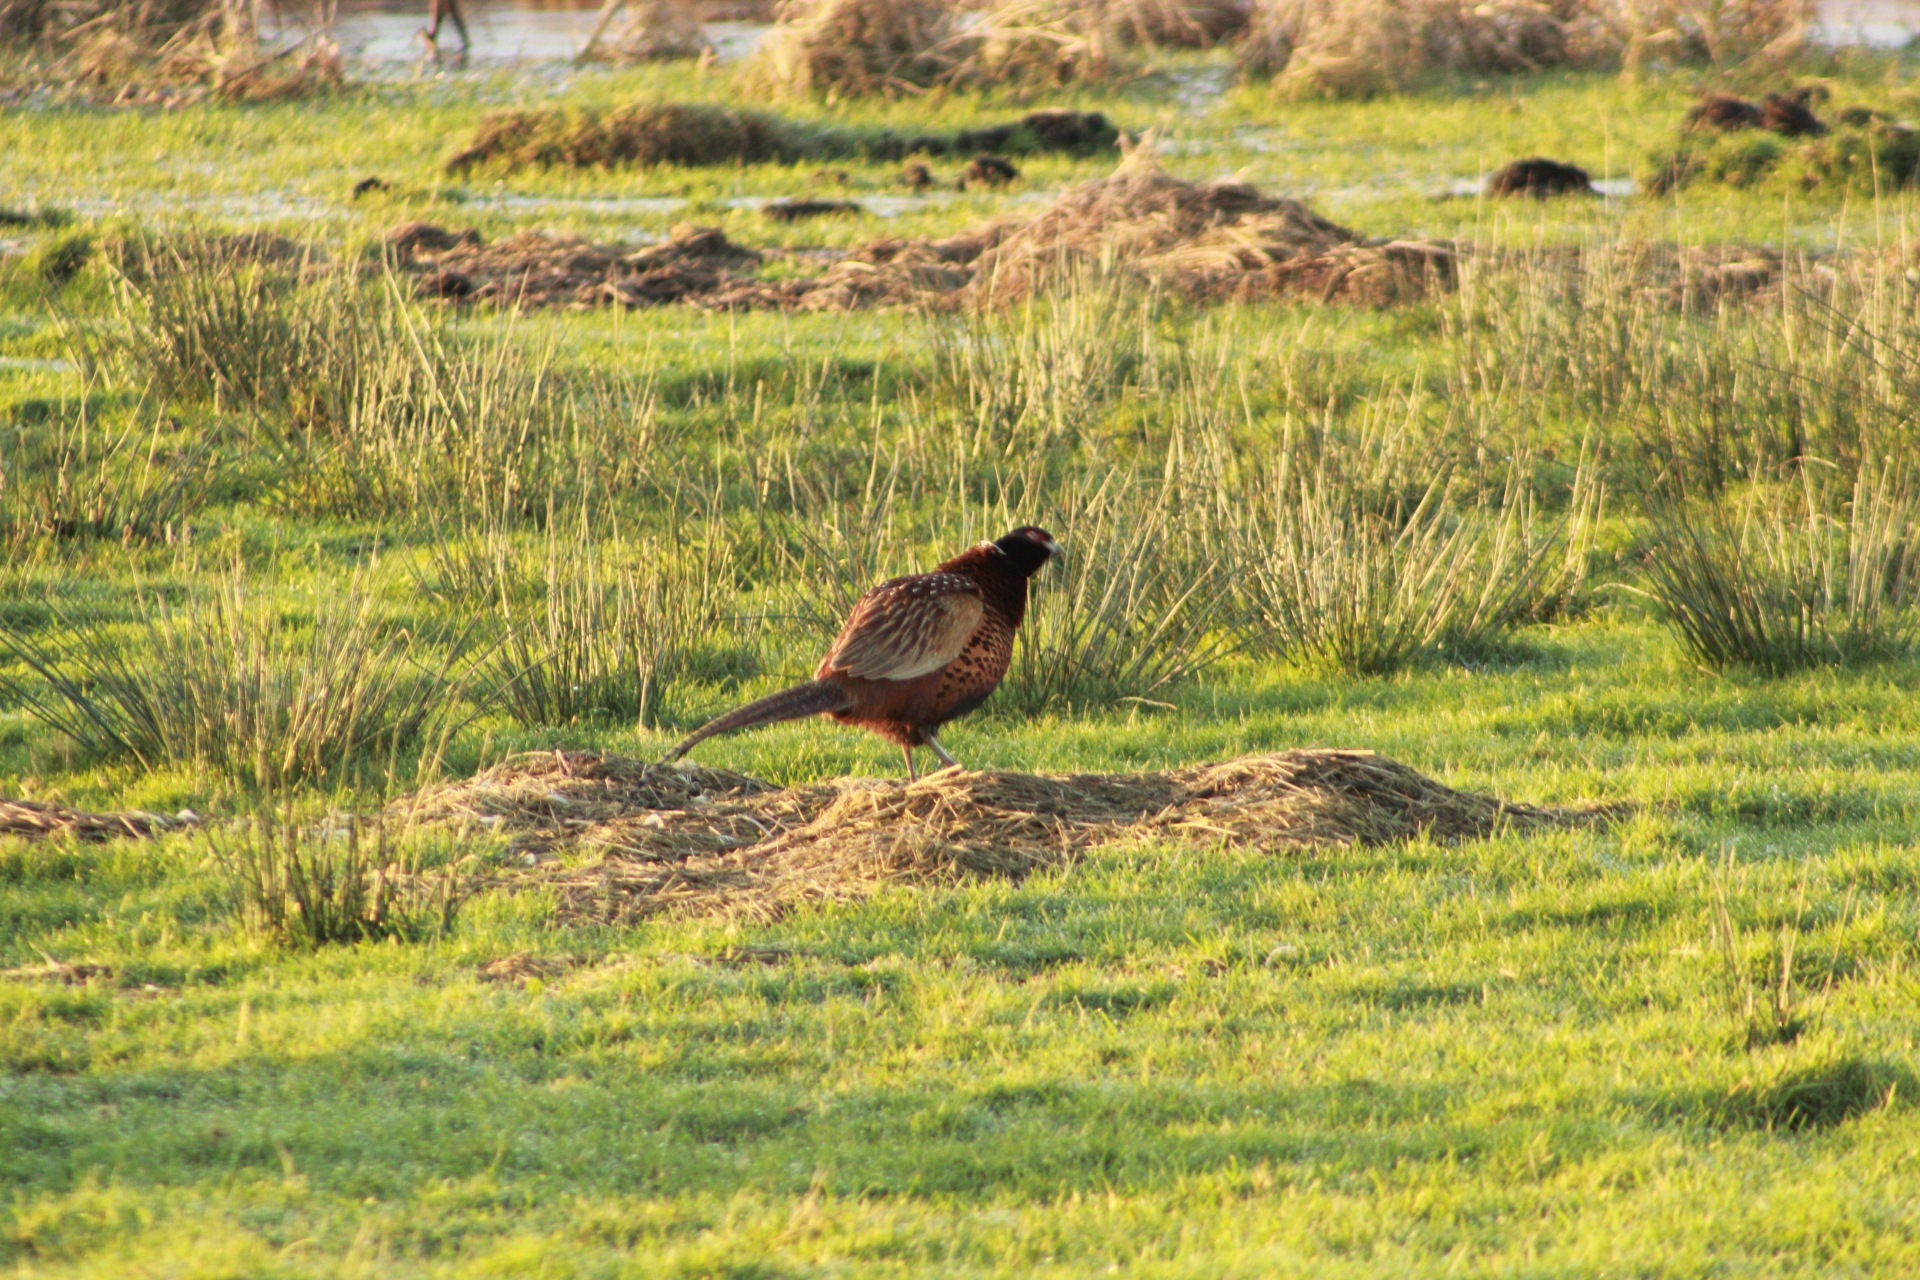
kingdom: Animalia
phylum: Chordata
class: Aves
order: Galliformes
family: Phasianidae
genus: Phasianus
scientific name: Phasianus colchicus
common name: Common pheasant
